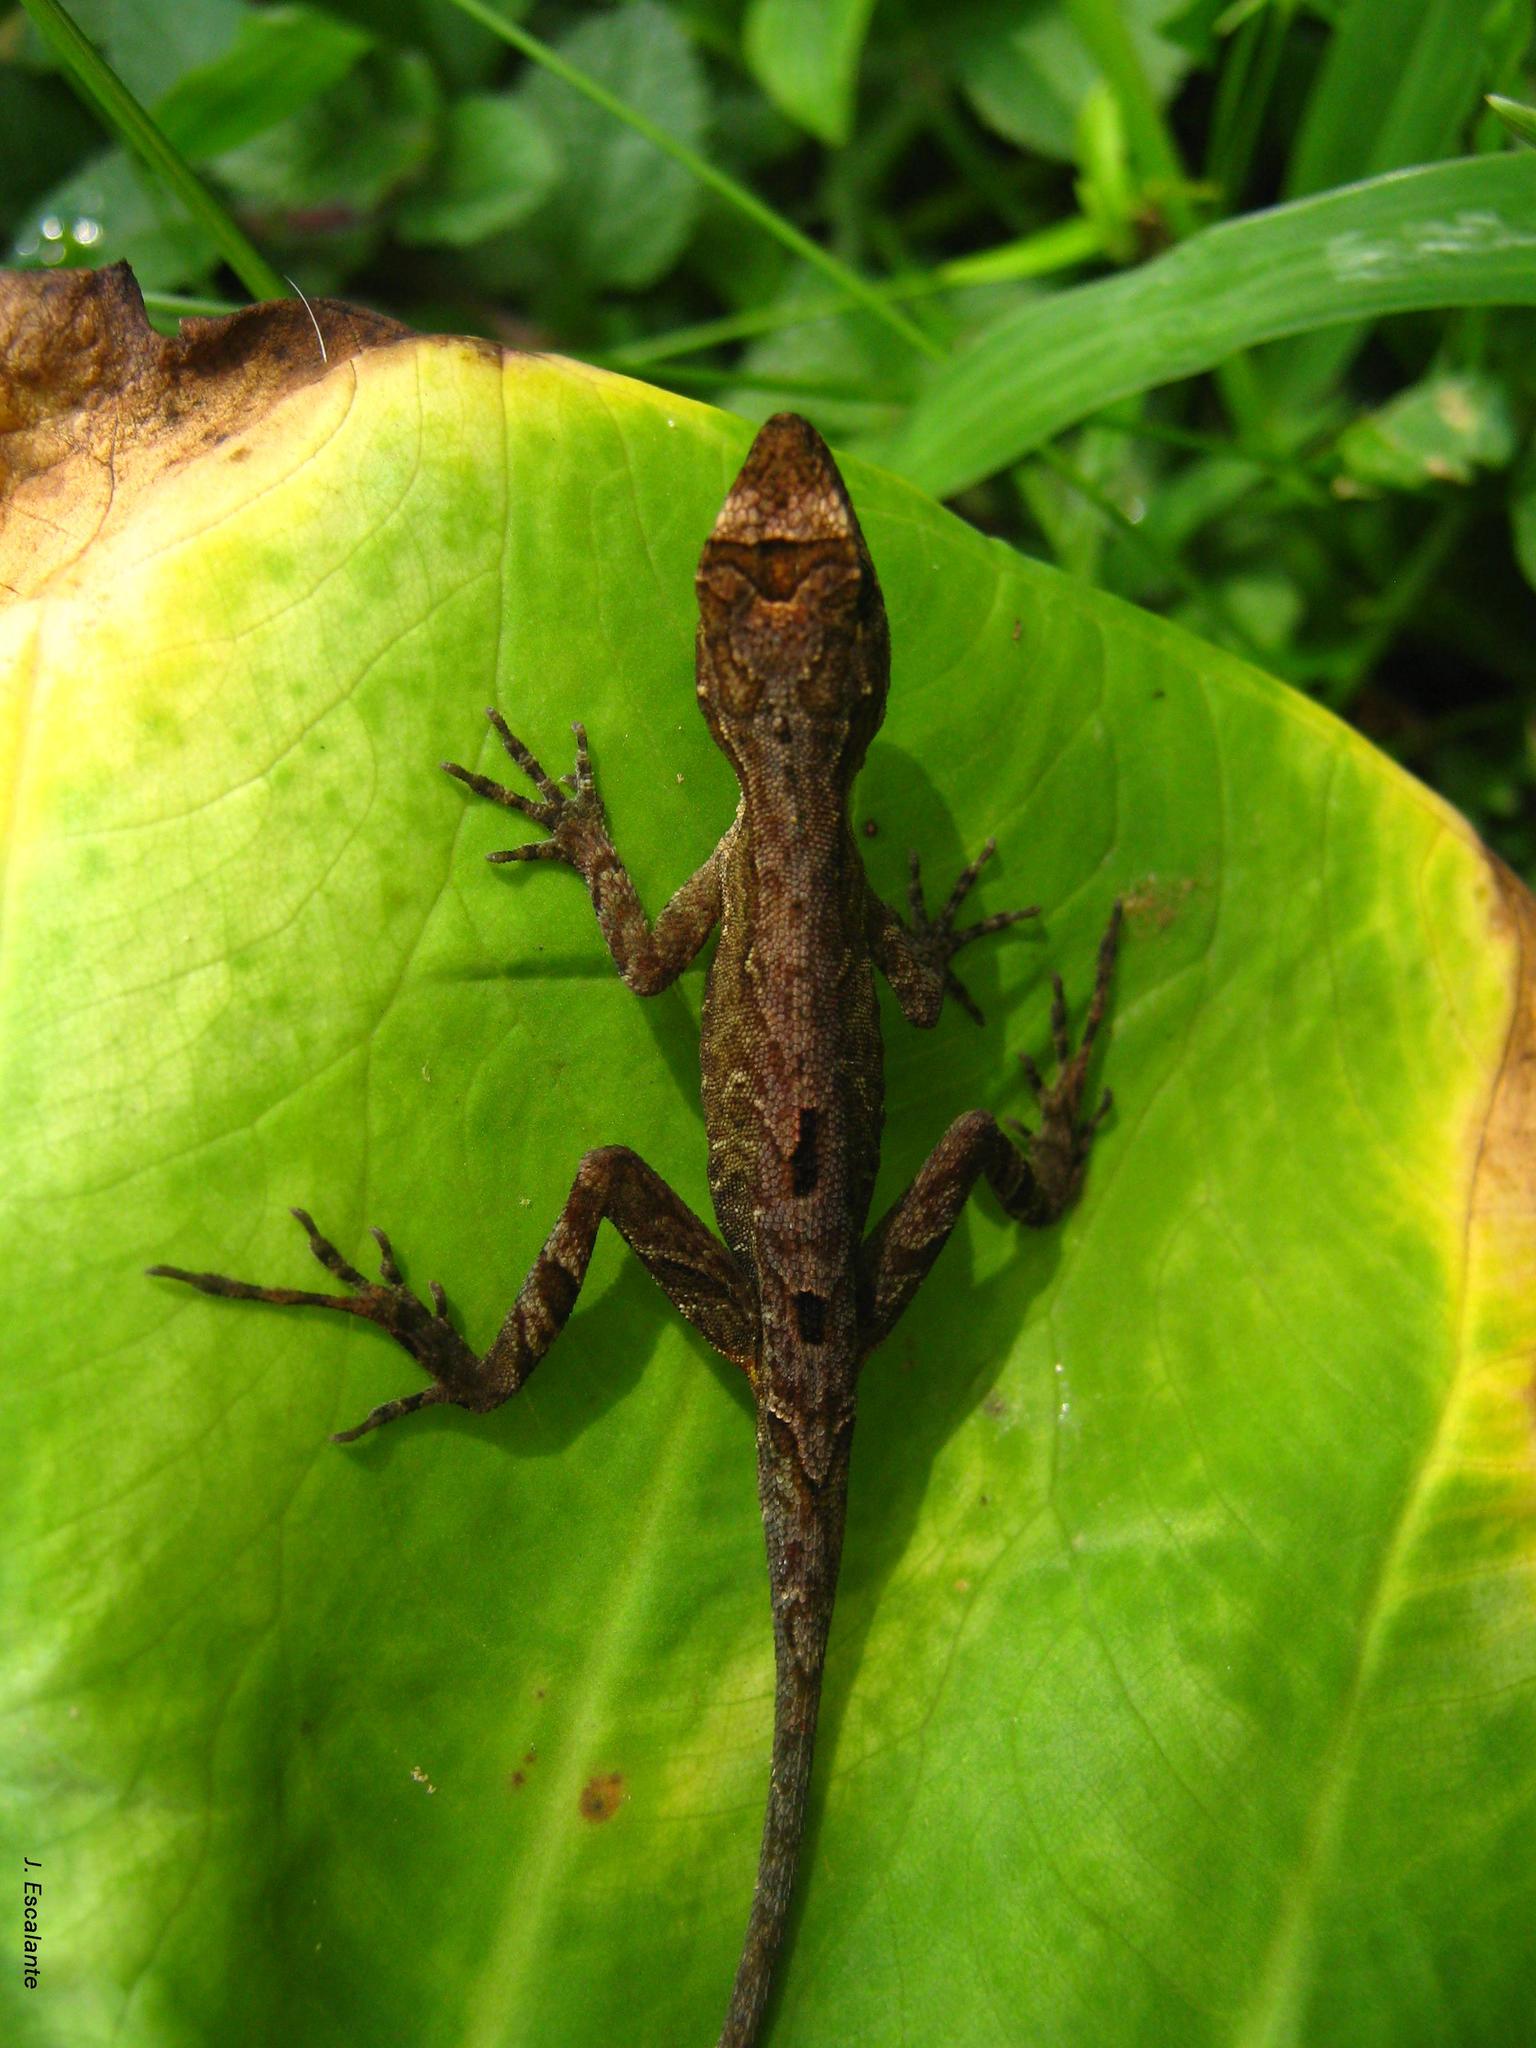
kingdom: Animalia
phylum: Chordata
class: Squamata
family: Dactyloidae
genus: Anolis
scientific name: Anolis uniformis
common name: Lesser scaly anole
